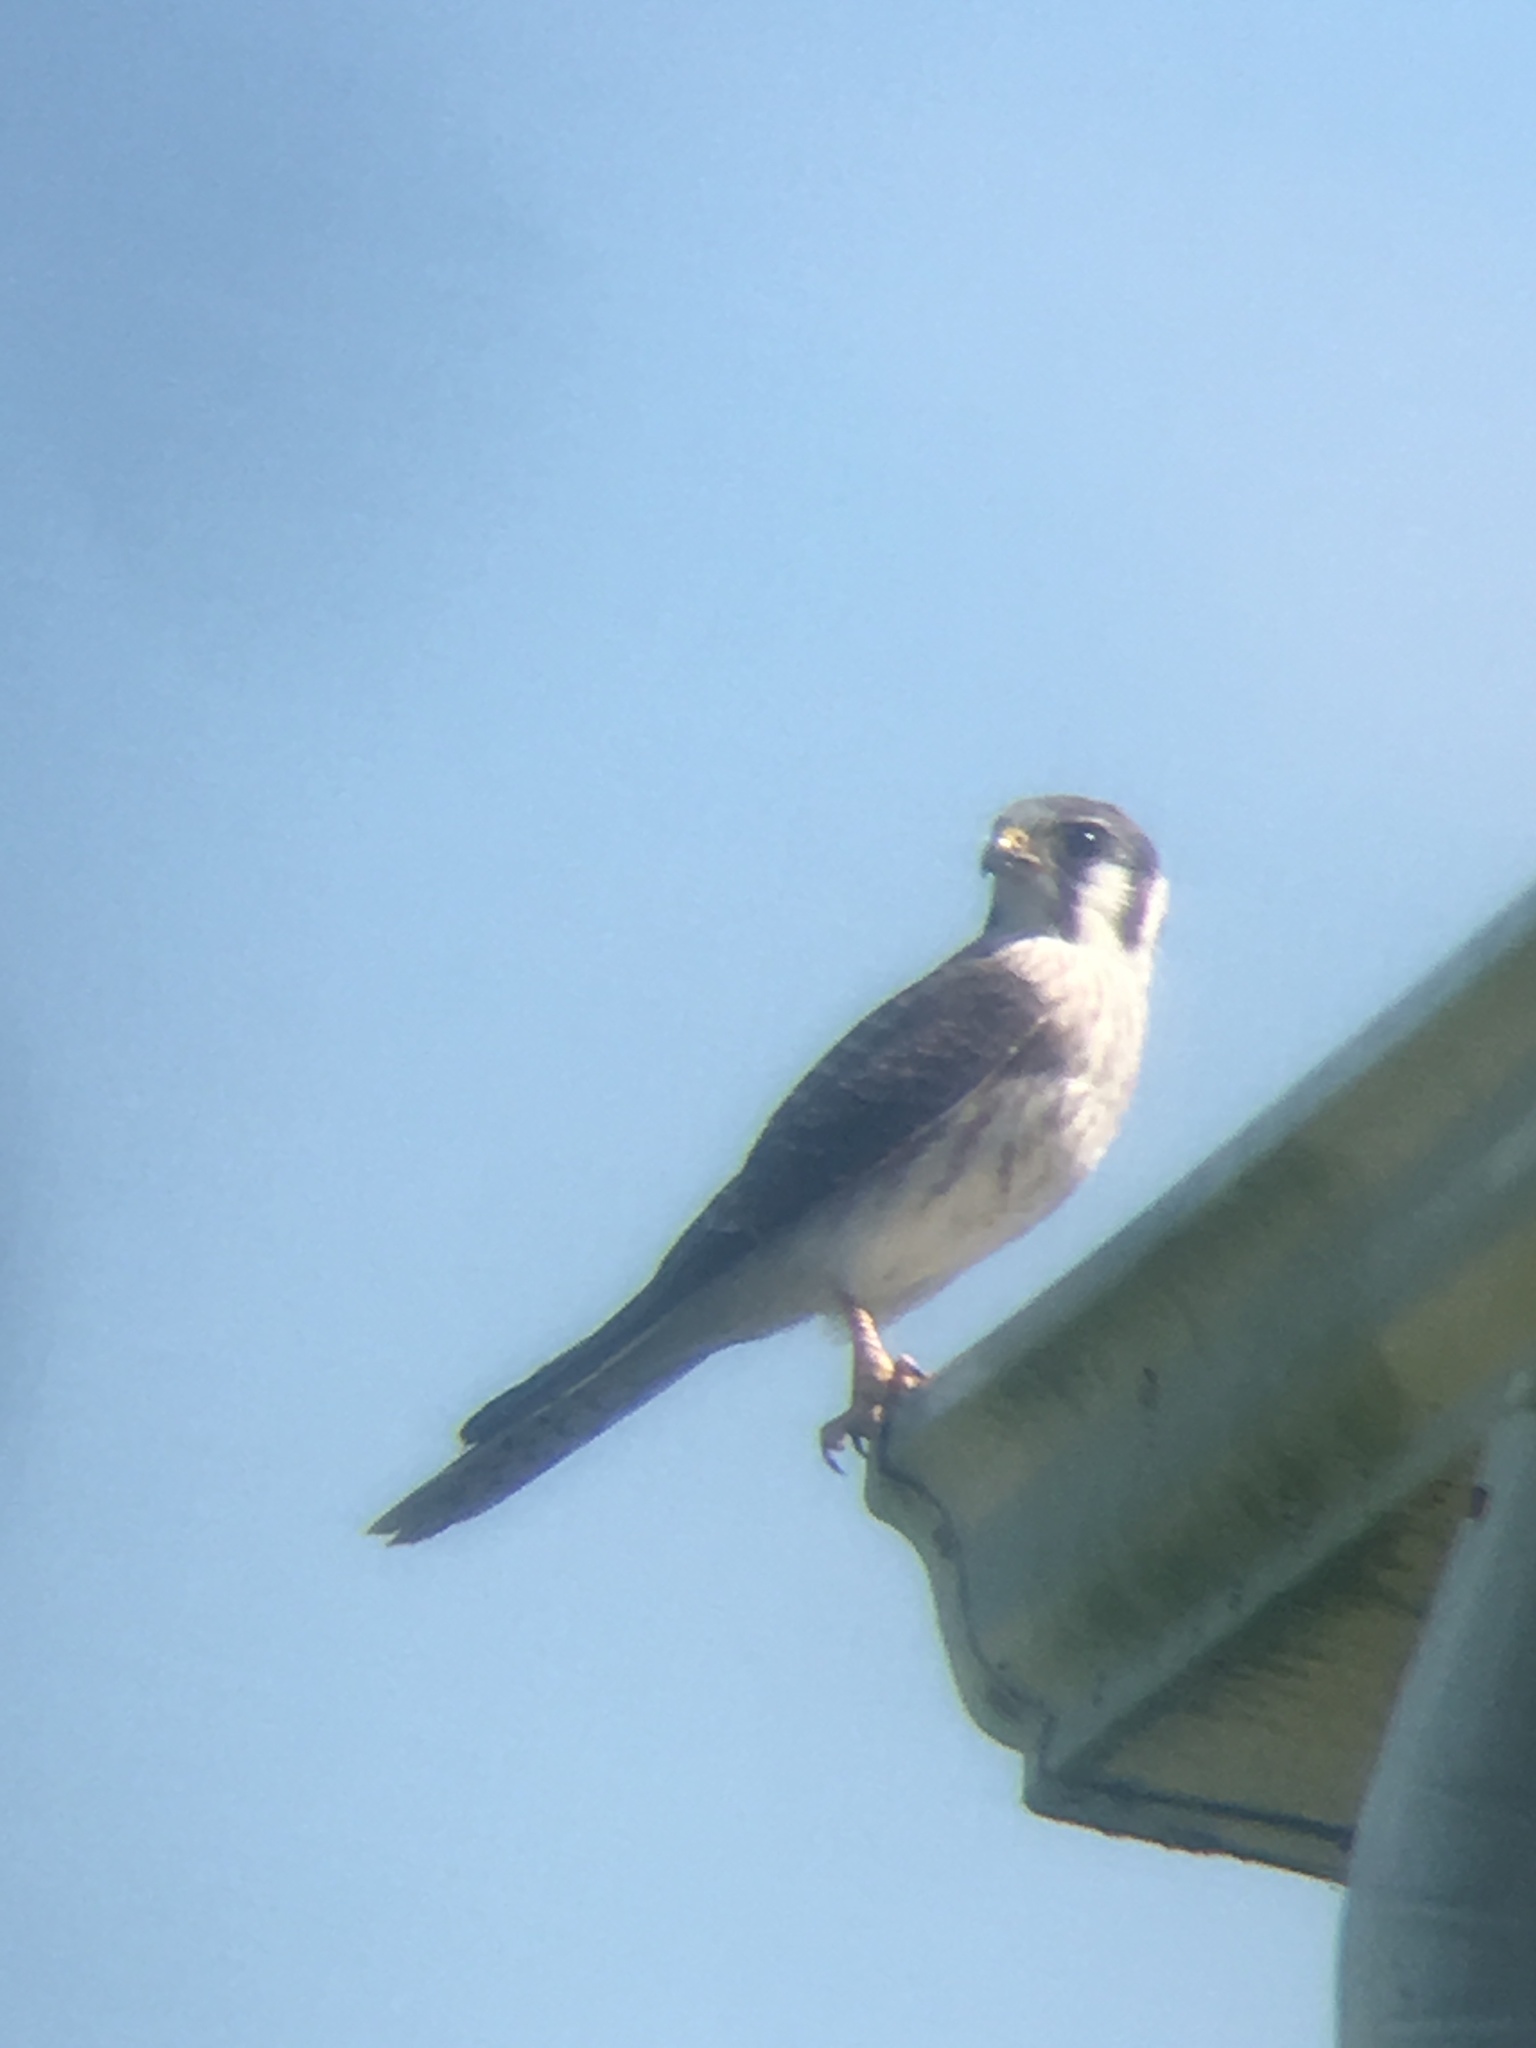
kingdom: Animalia
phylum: Chordata
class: Aves
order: Falconiformes
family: Falconidae
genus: Falco
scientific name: Falco sparverius
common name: American kestrel
